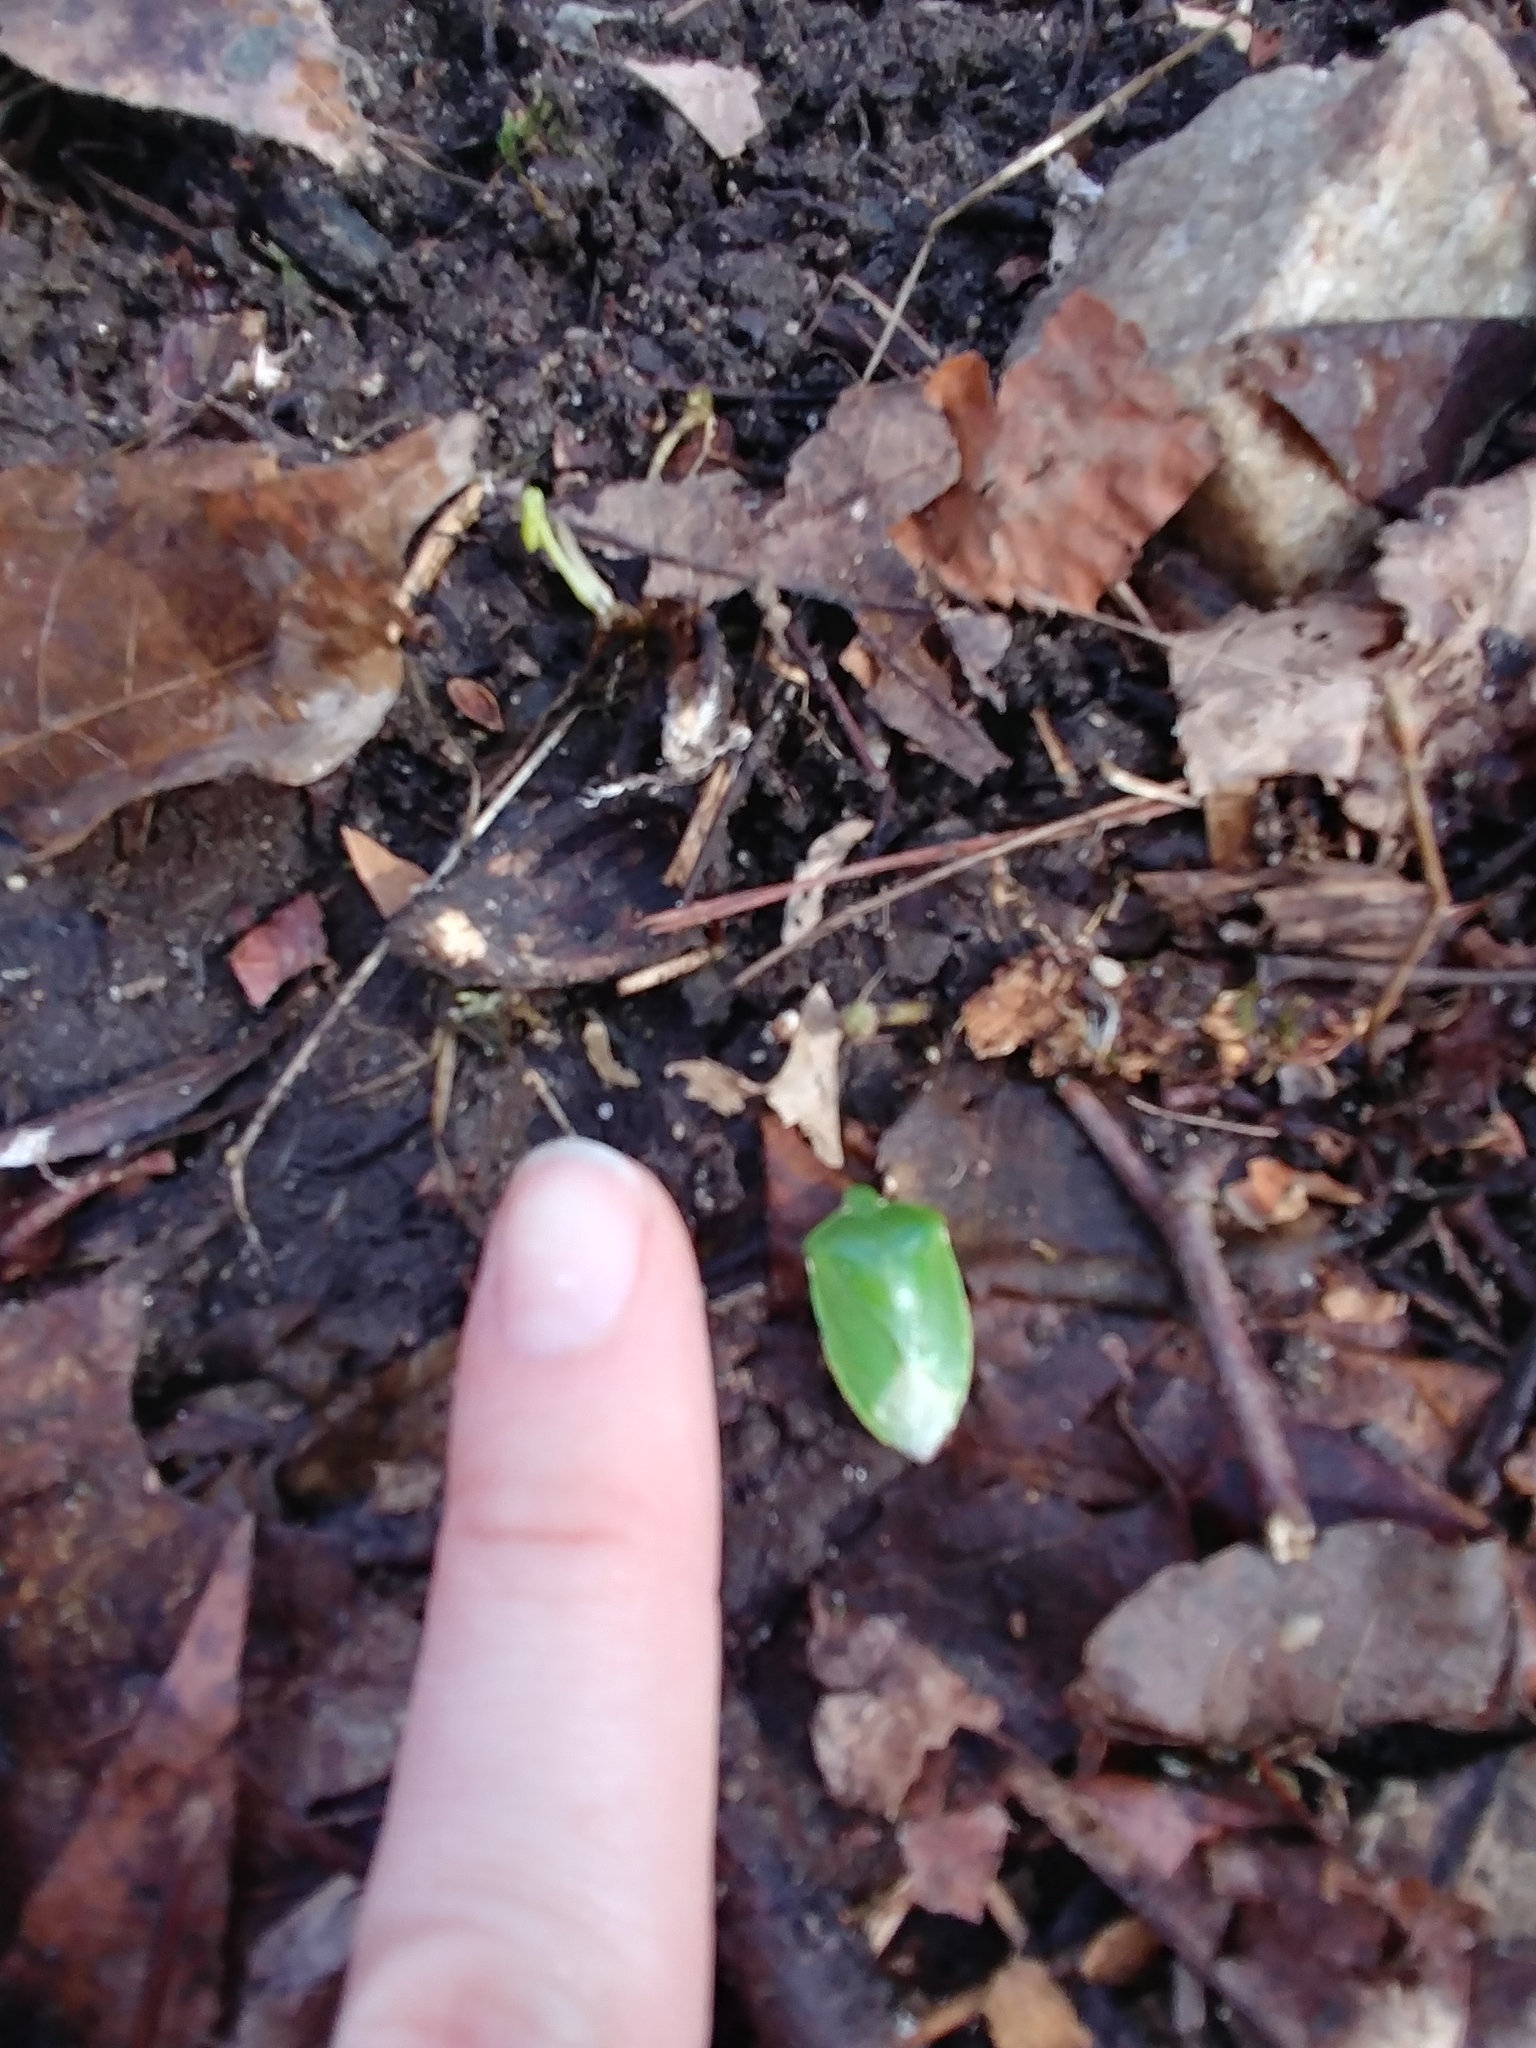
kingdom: Animalia
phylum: Arthropoda
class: Insecta
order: Hemiptera
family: Pentatomidae
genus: Chinavia
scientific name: Chinavia hilaris
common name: Green stink bug
